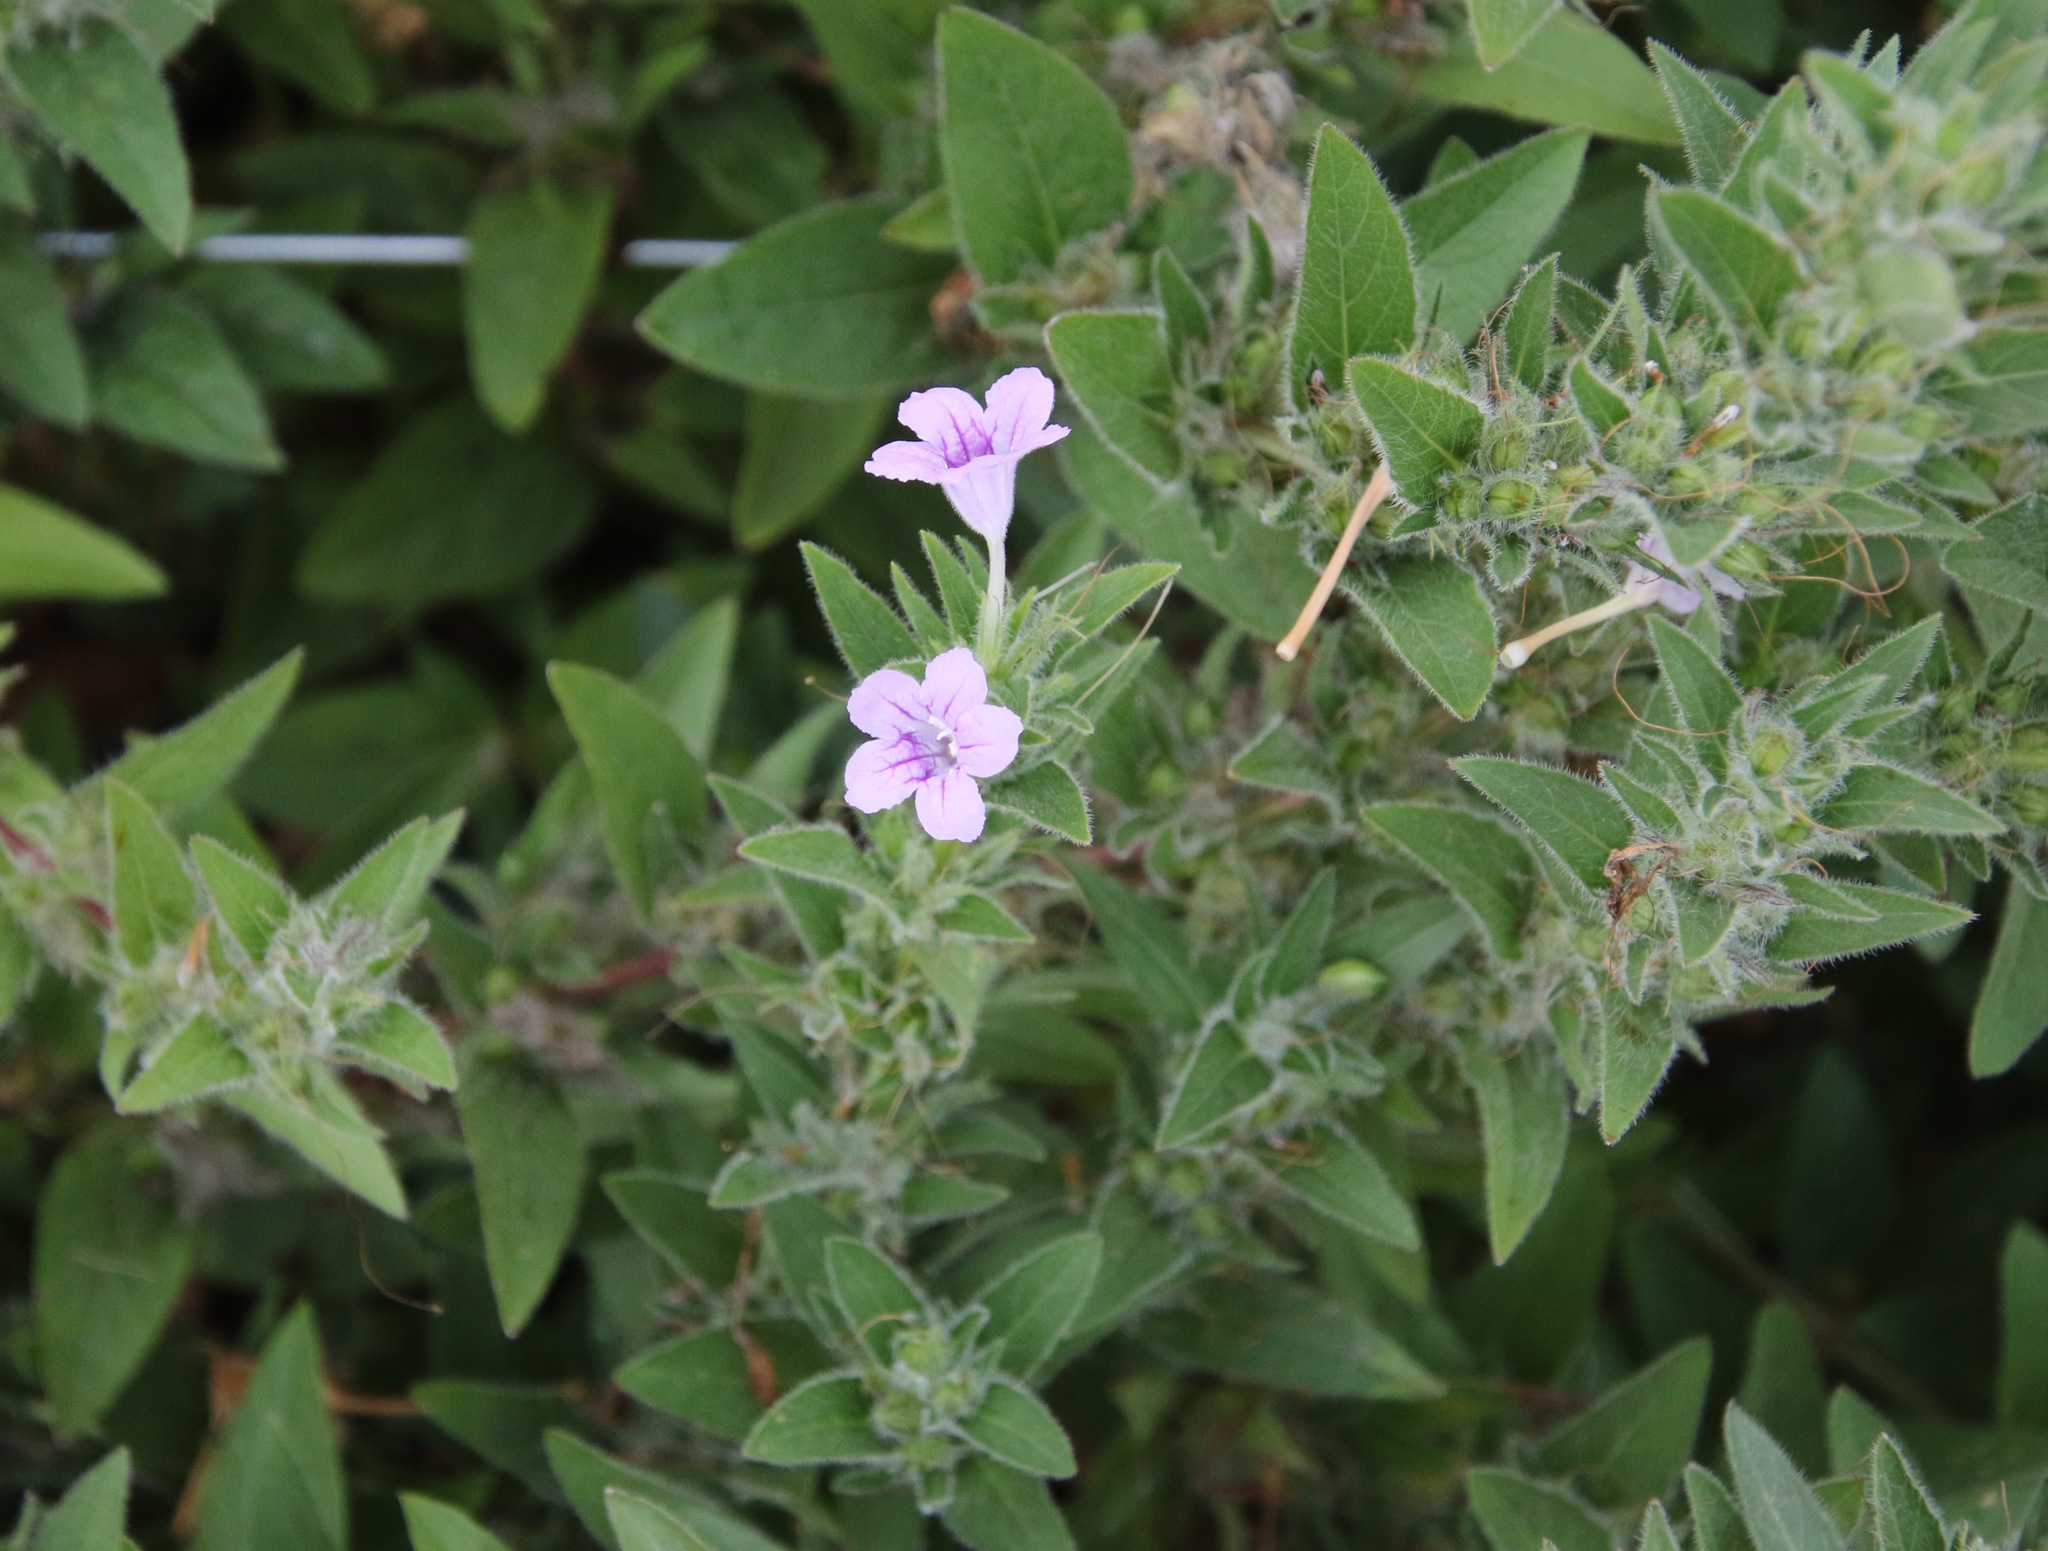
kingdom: Plantae
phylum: Tracheophyta
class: Magnoliopsida
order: Lamiales
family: Acanthaceae
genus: Ruellia
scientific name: Ruellia humilis
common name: Fringe-leaf ruellia
